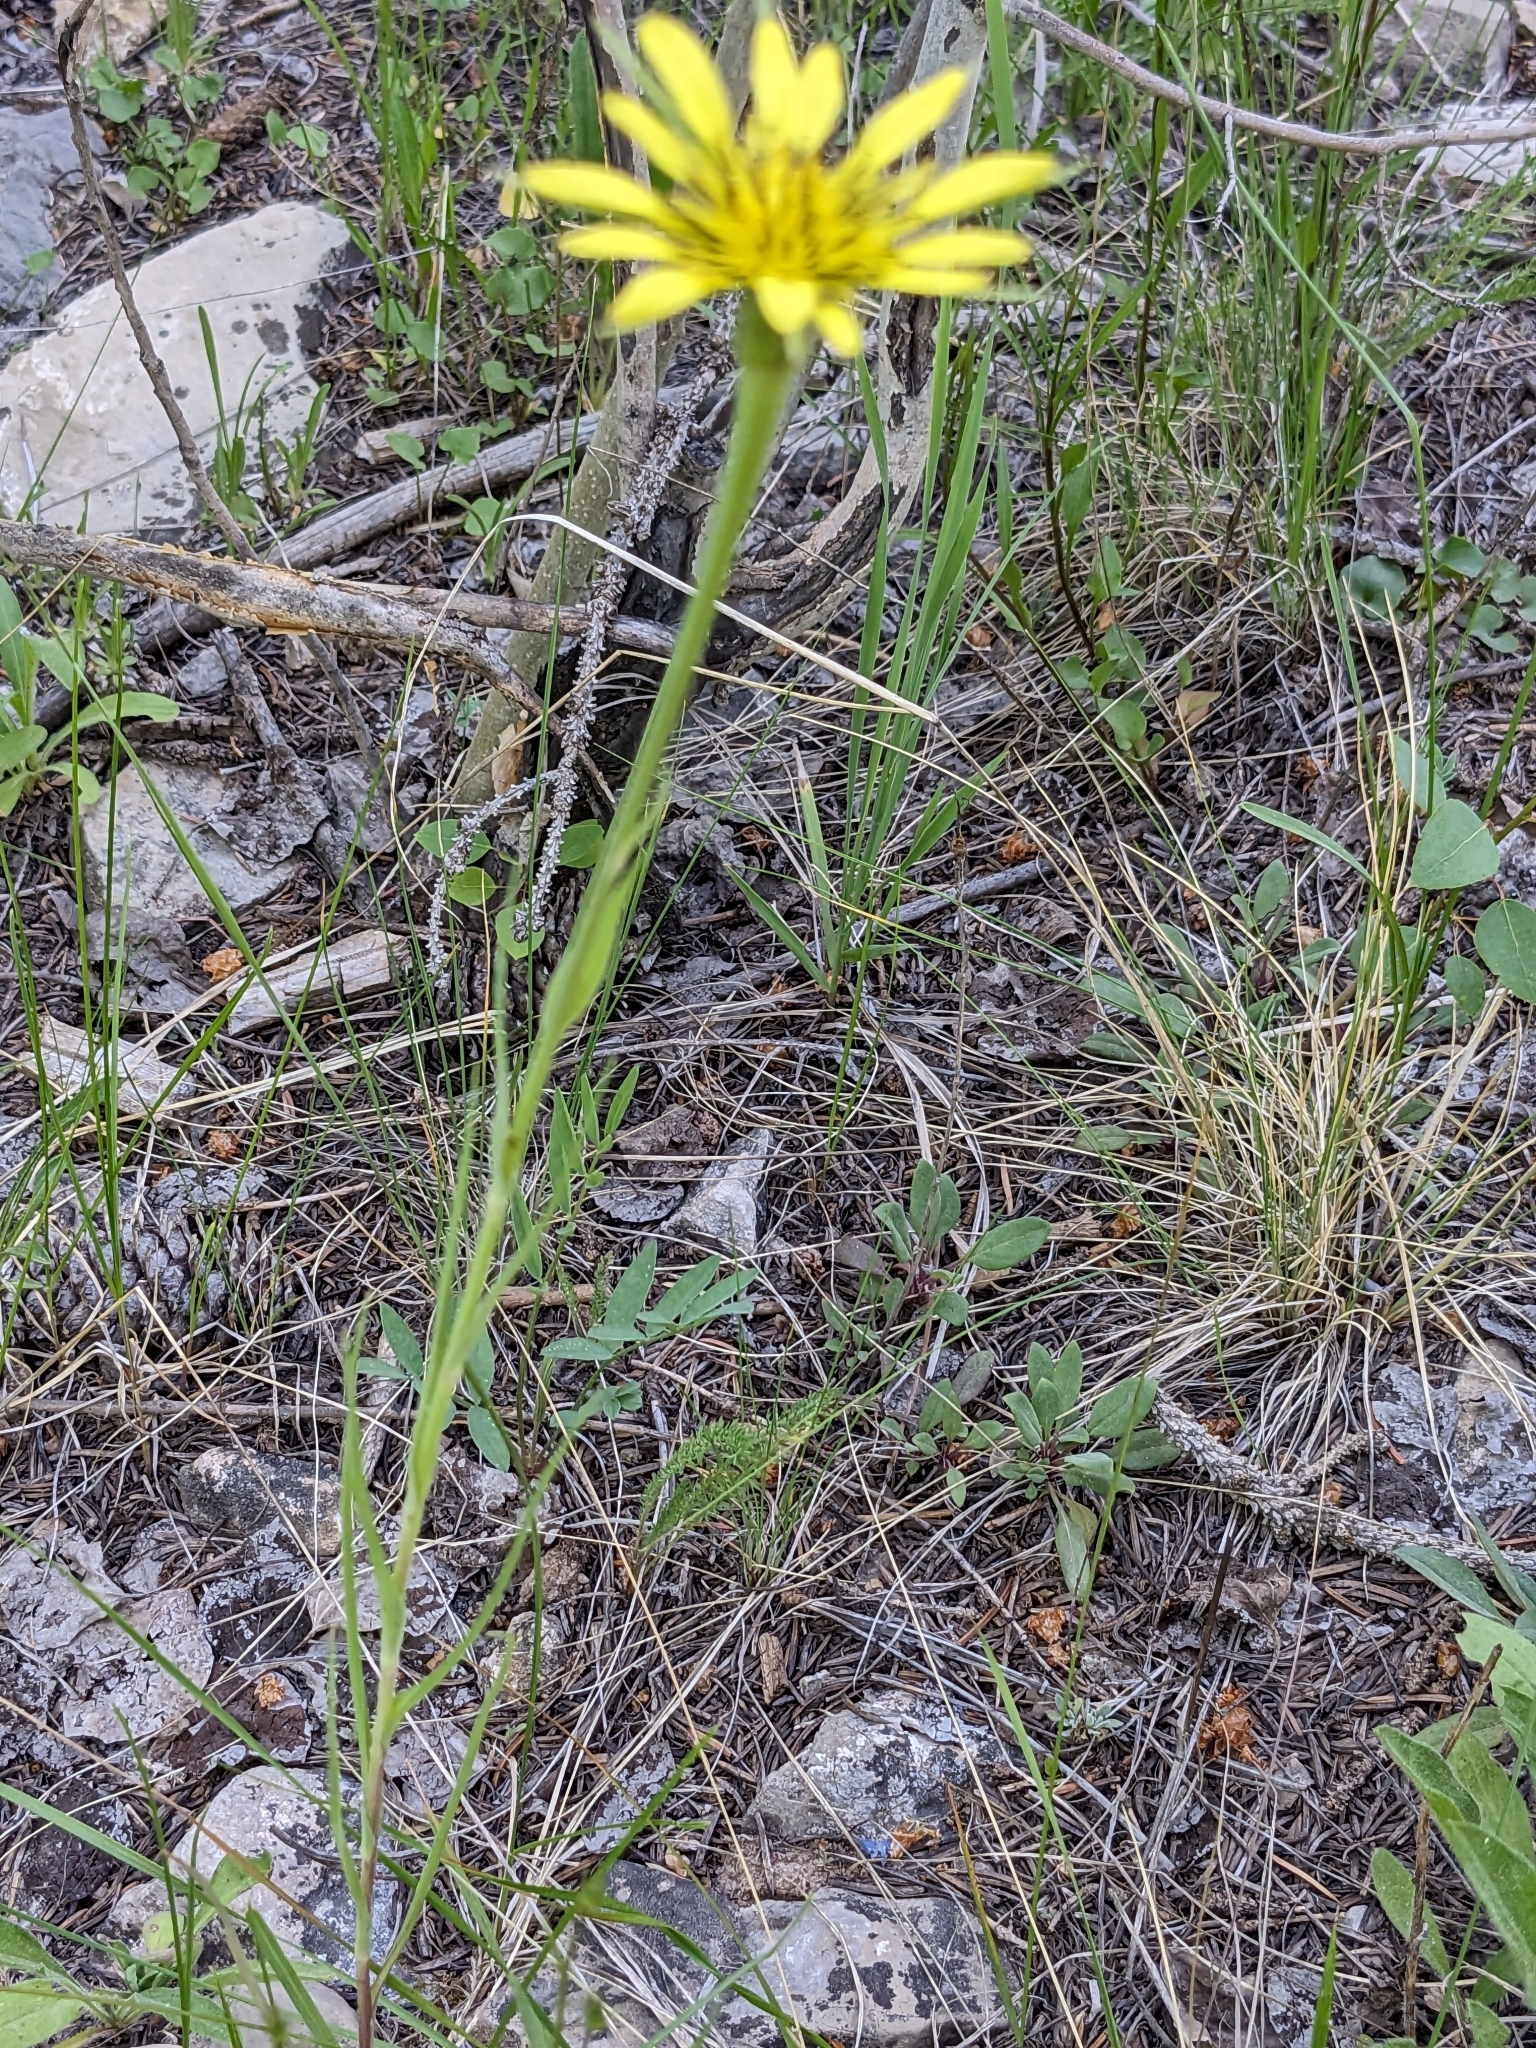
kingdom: Plantae
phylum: Tracheophyta
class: Magnoliopsida
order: Asterales
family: Asteraceae
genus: Tragopogon
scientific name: Tragopogon dubius
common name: Yellow salsify
